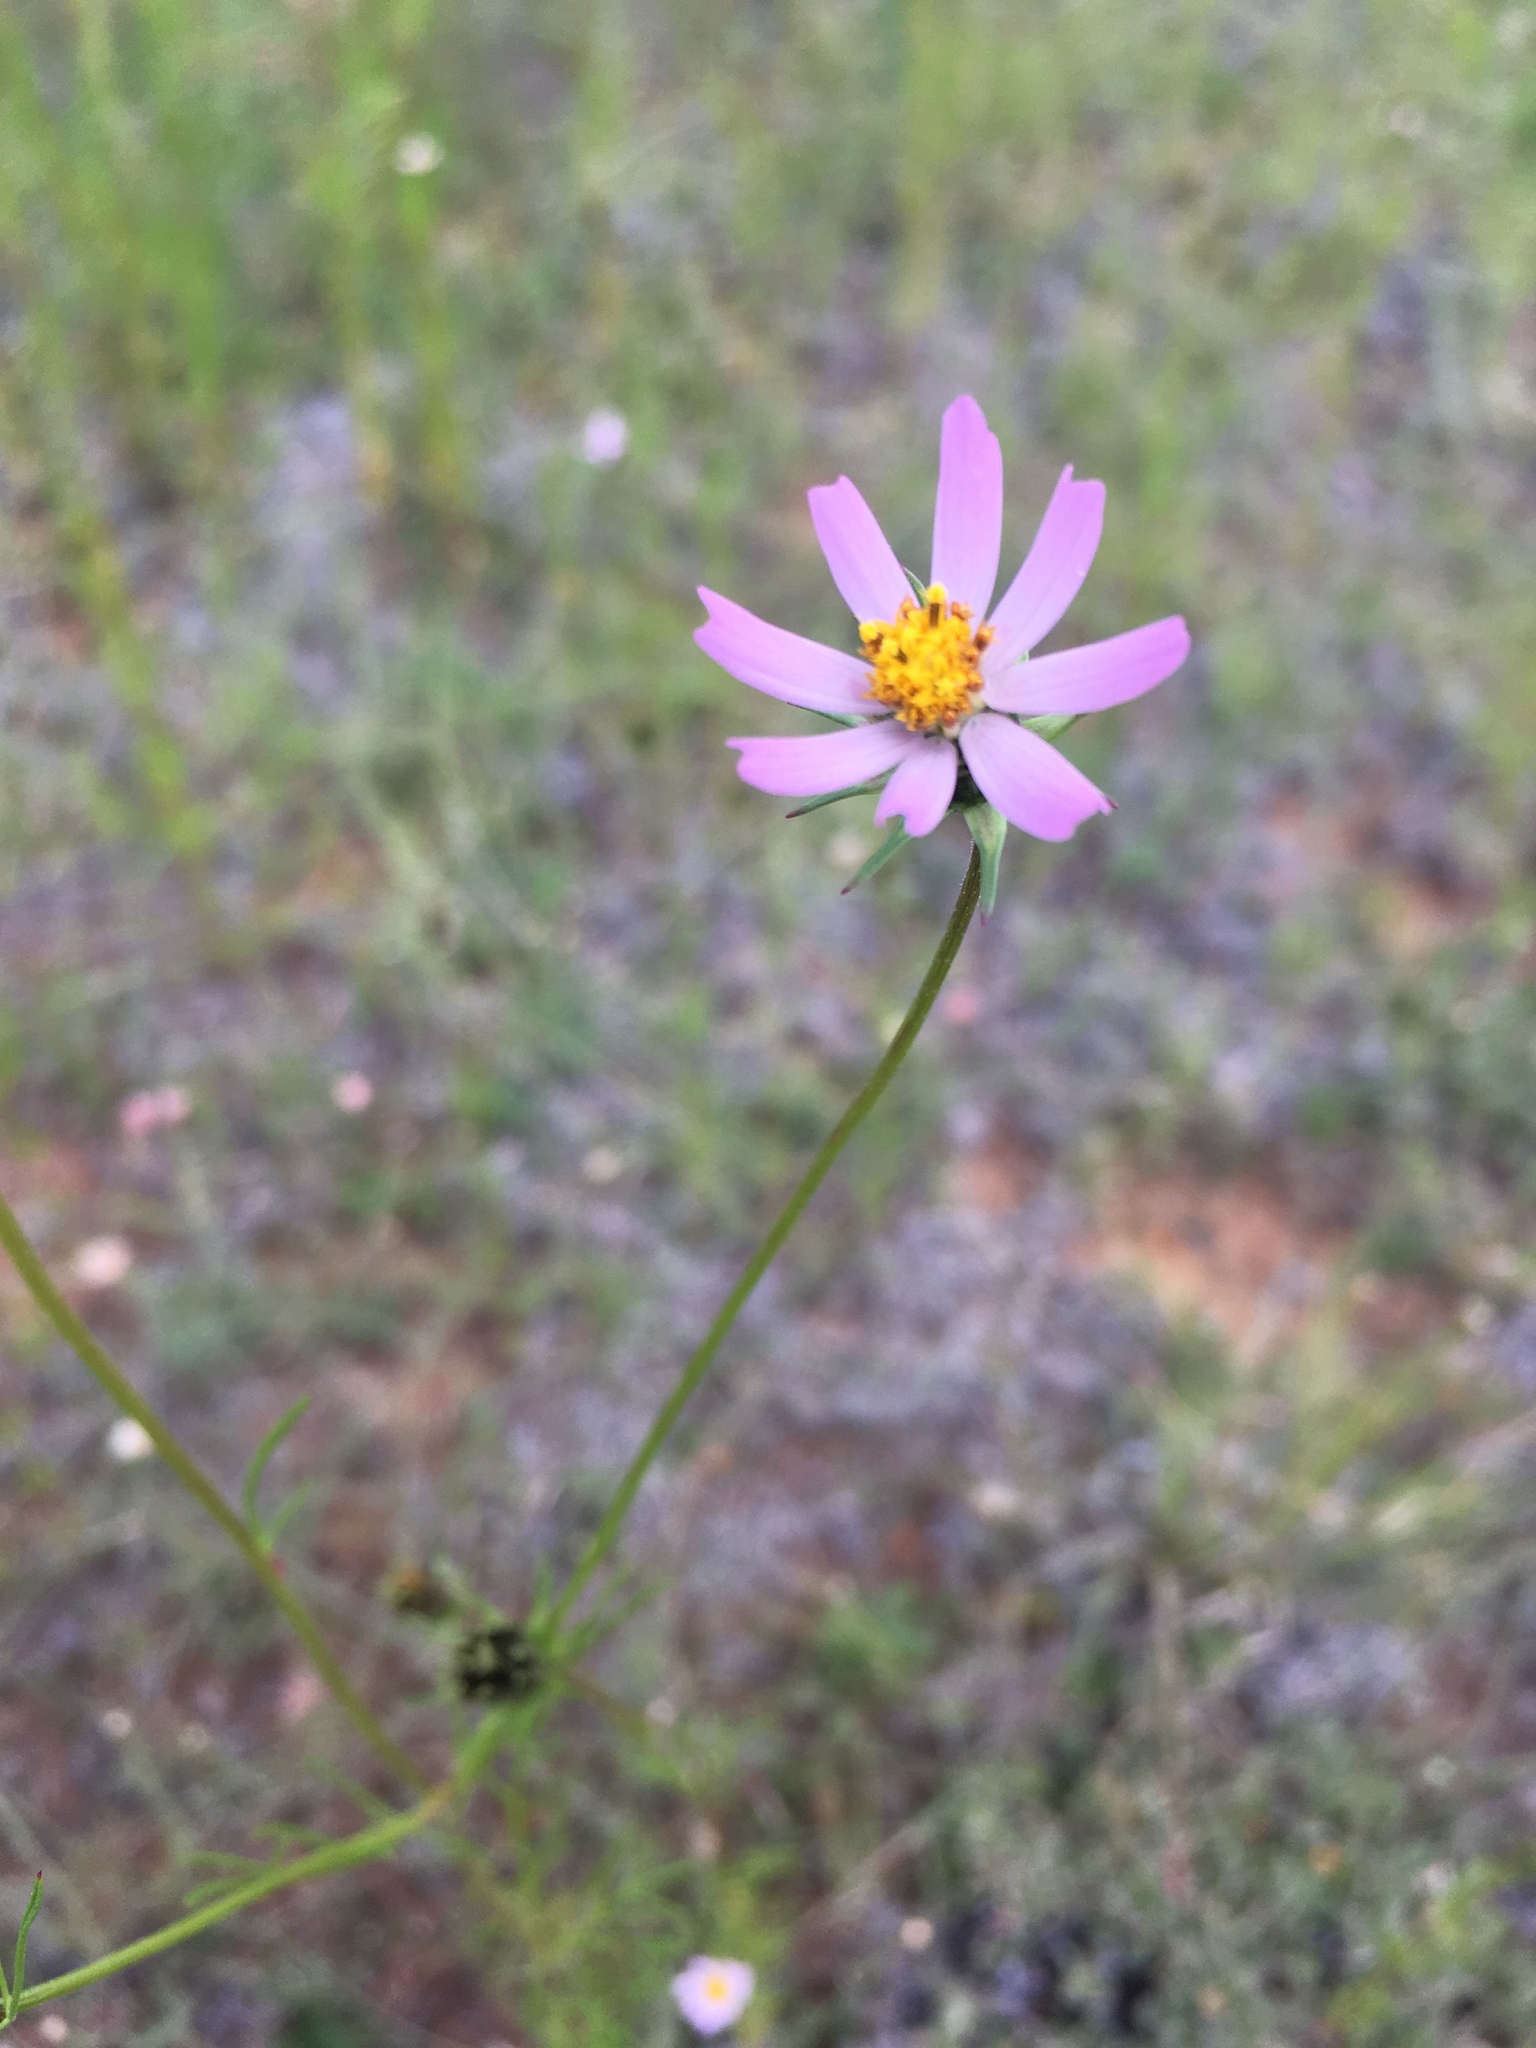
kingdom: Plantae
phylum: Tracheophyta
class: Magnoliopsida
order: Asterales
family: Asteraceae
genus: Cosmos
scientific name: Cosmos parviflorus
